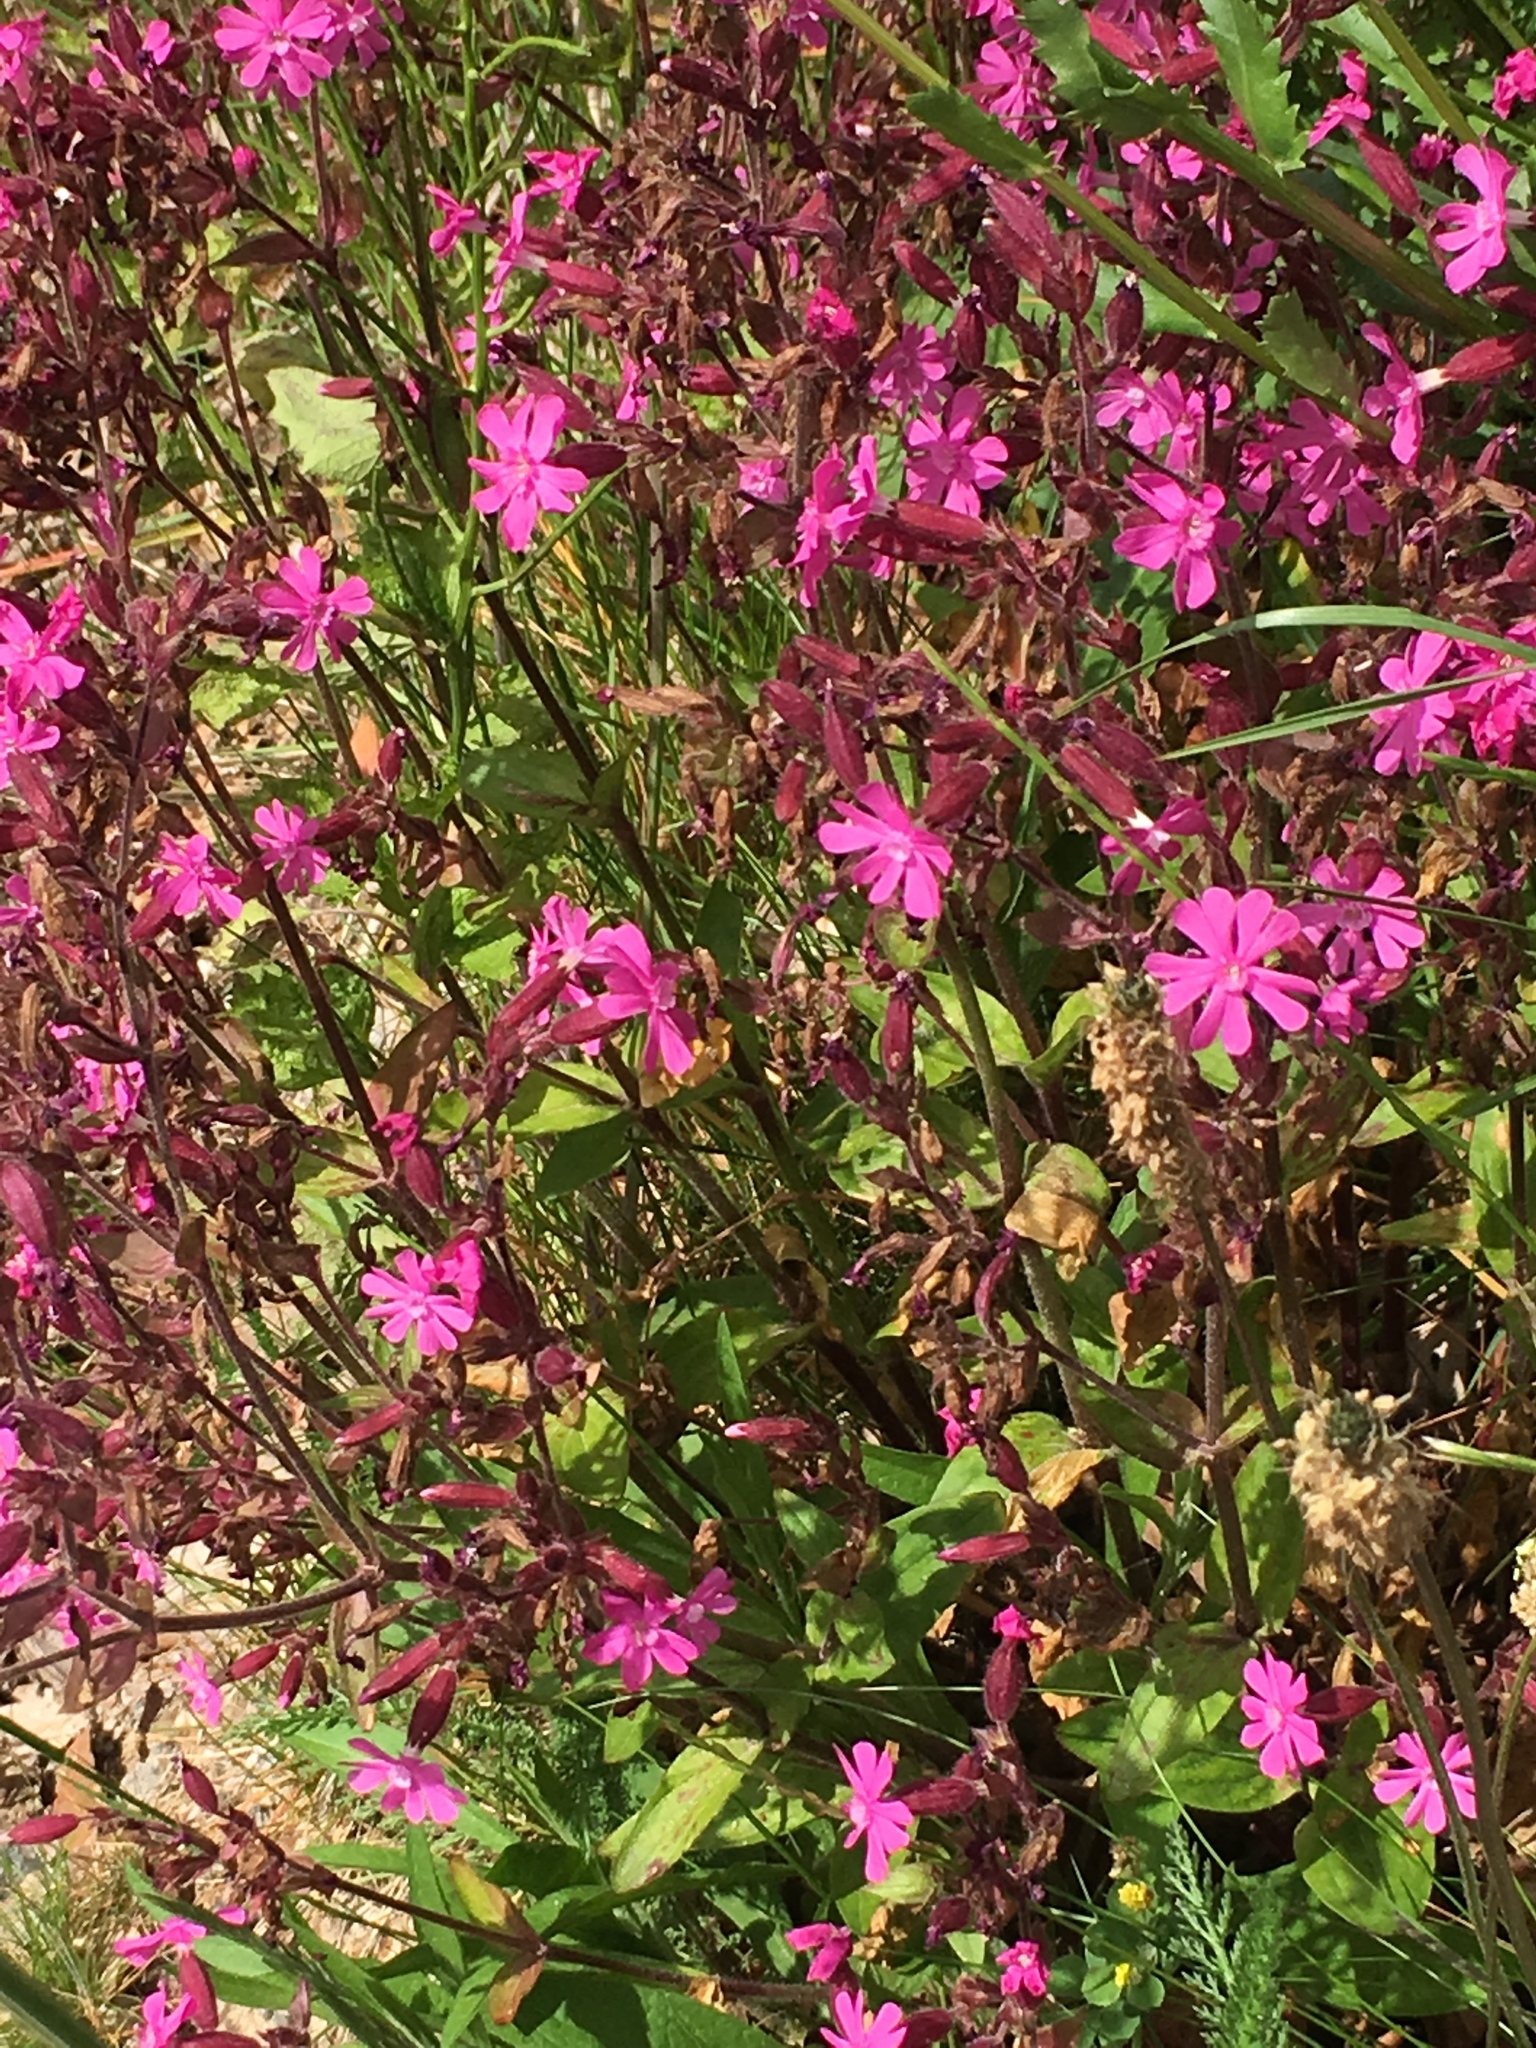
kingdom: Plantae
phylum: Tracheophyta
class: Magnoliopsida
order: Caryophyllales
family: Caryophyllaceae
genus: Silene
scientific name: Silene dioica
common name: Red campion
